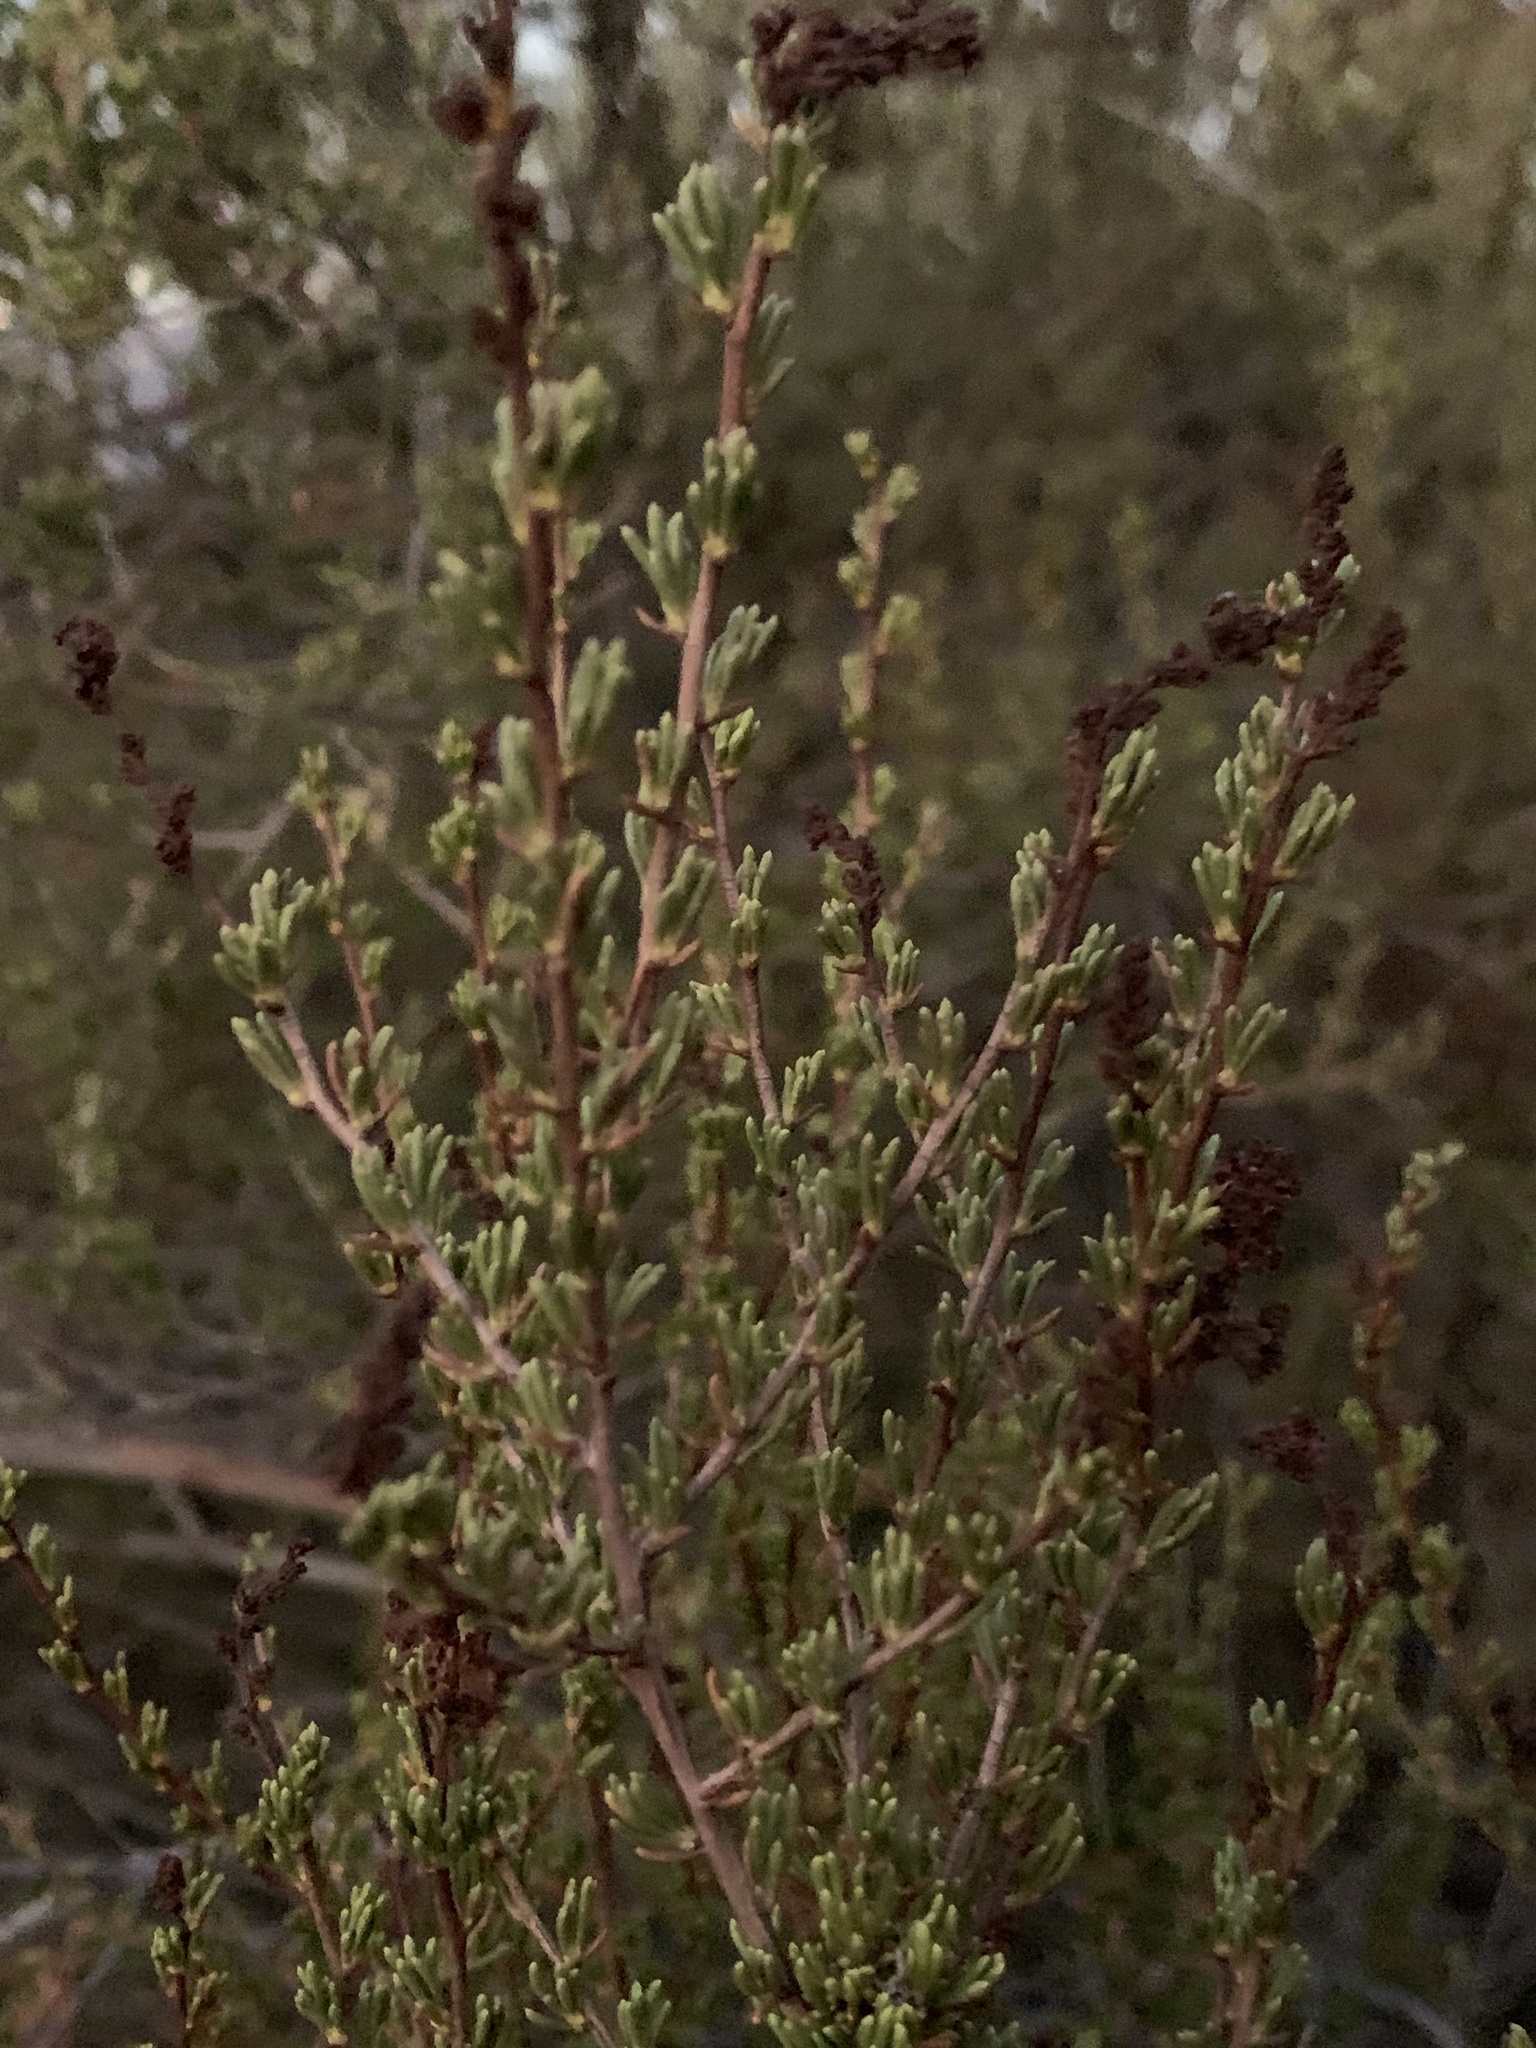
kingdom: Plantae
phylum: Tracheophyta
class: Magnoliopsida
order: Rosales
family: Rosaceae
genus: Adenostoma
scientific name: Adenostoma fasciculatum
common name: Chamise
